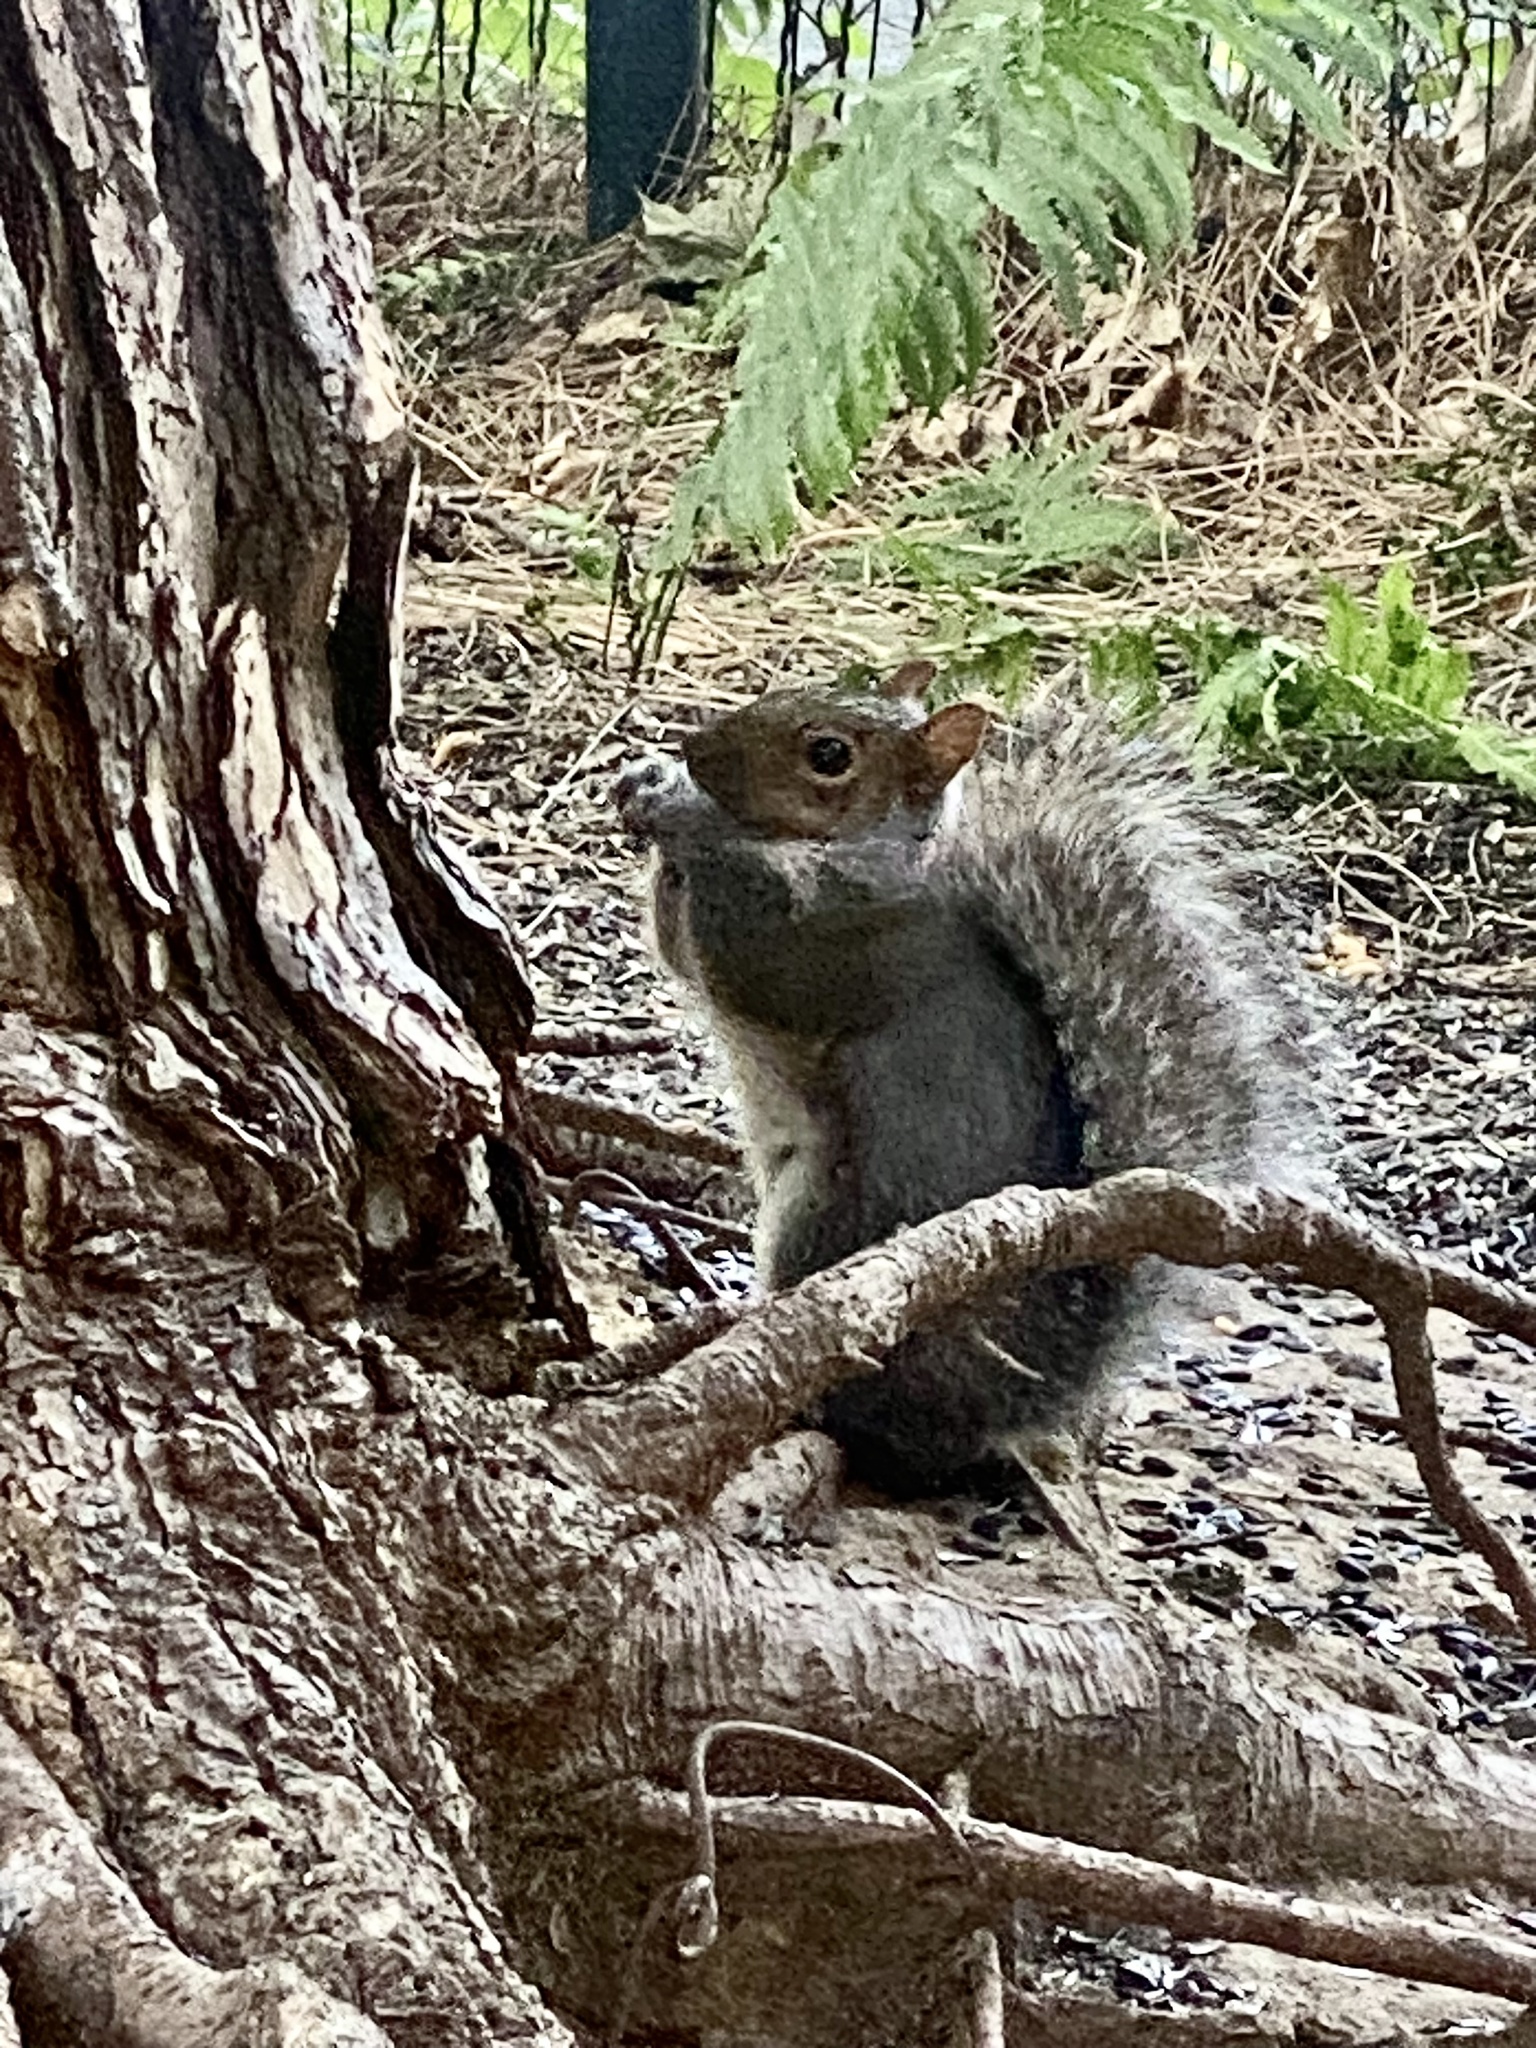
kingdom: Animalia
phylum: Chordata
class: Mammalia
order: Rodentia
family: Sciuridae
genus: Sciurus
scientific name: Sciurus carolinensis
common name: Eastern gray squirrel
